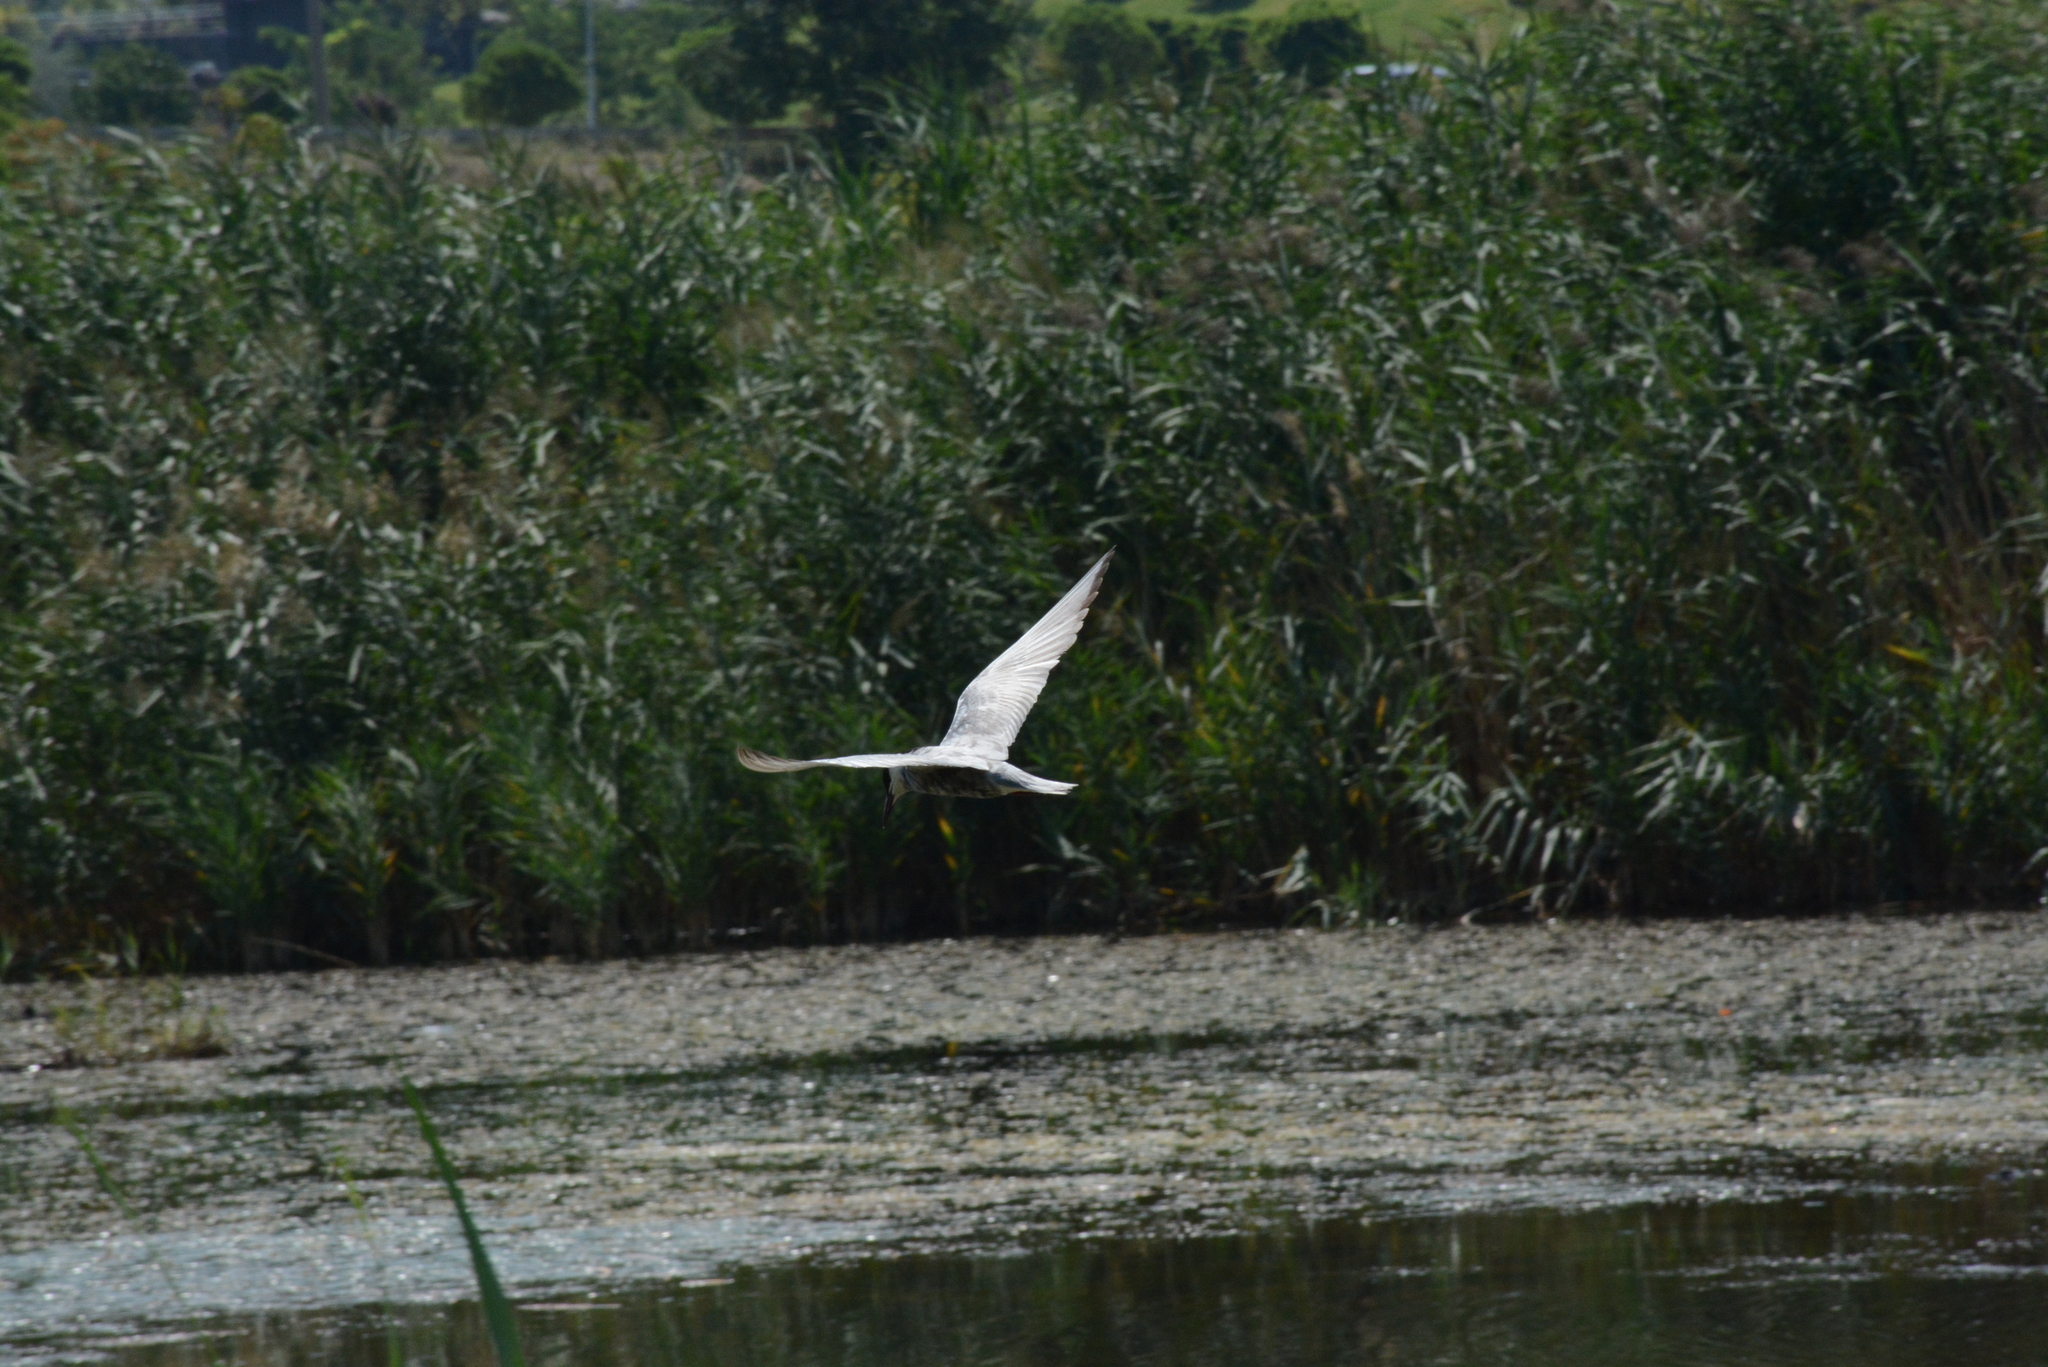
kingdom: Animalia
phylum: Chordata
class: Aves
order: Charadriiformes
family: Laridae
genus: Chlidonias
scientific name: Chlidonias hybrida
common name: Whiskered tern
